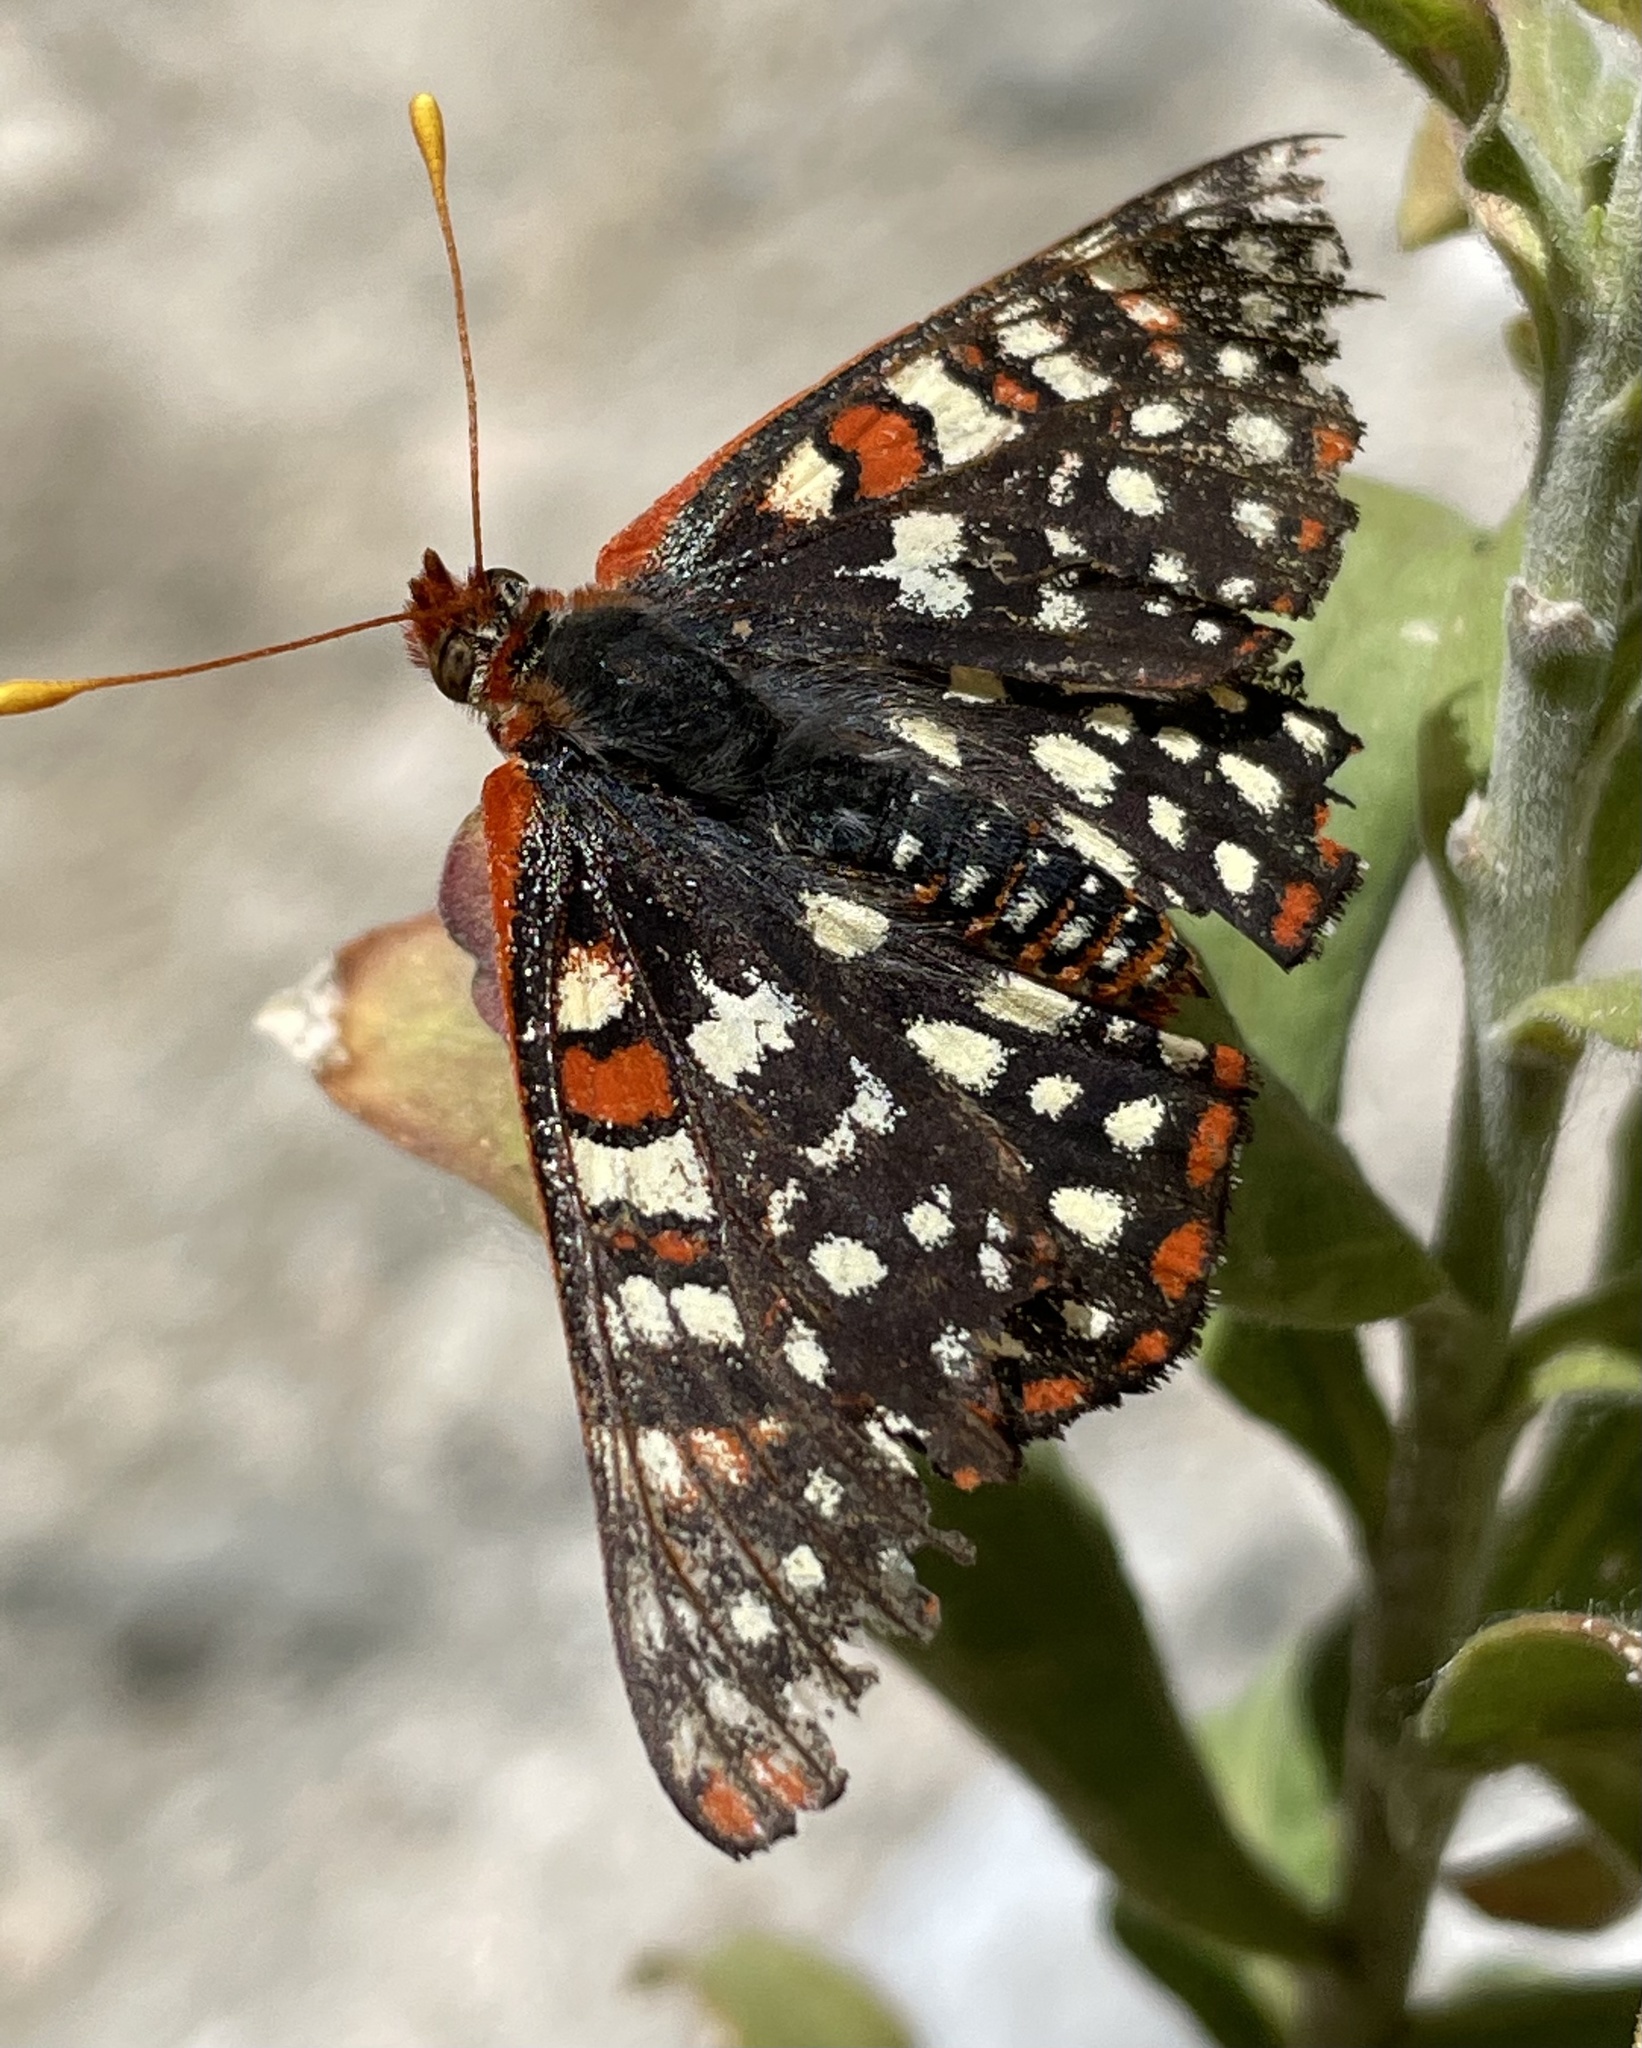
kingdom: Animalia
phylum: Arthropoda
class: Insecta
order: Lepidoptera
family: Nymphalidae
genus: Occidryas
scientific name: Occidryas chalcedona
